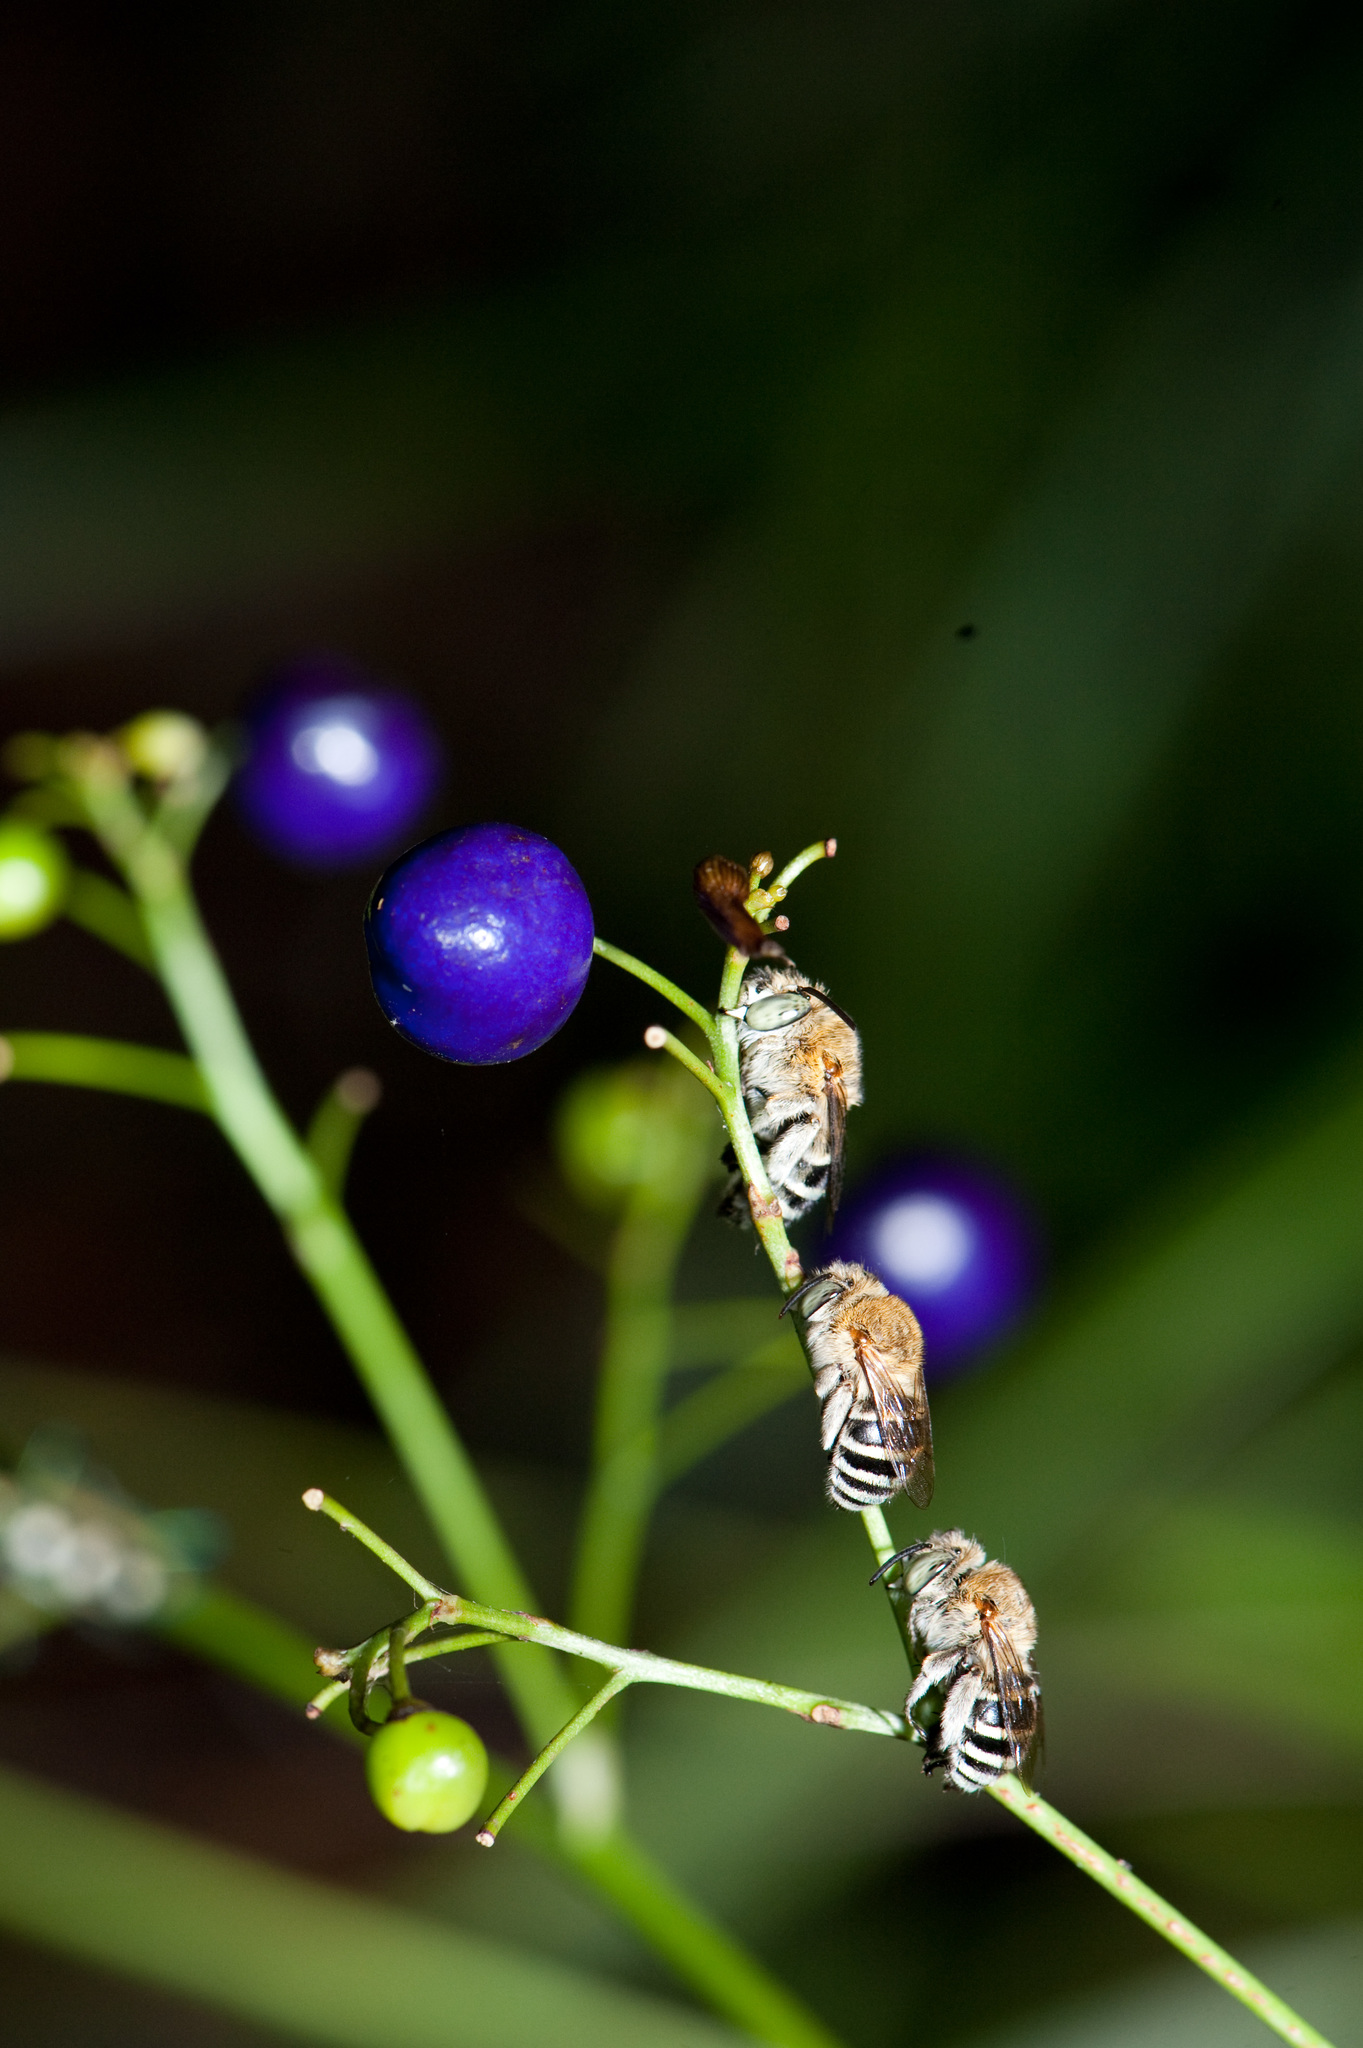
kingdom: Animalia
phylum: Arthropoda
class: Insecta
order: Hymenoptera
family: Apidae
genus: Amegilla
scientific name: Amegilla calceifera
